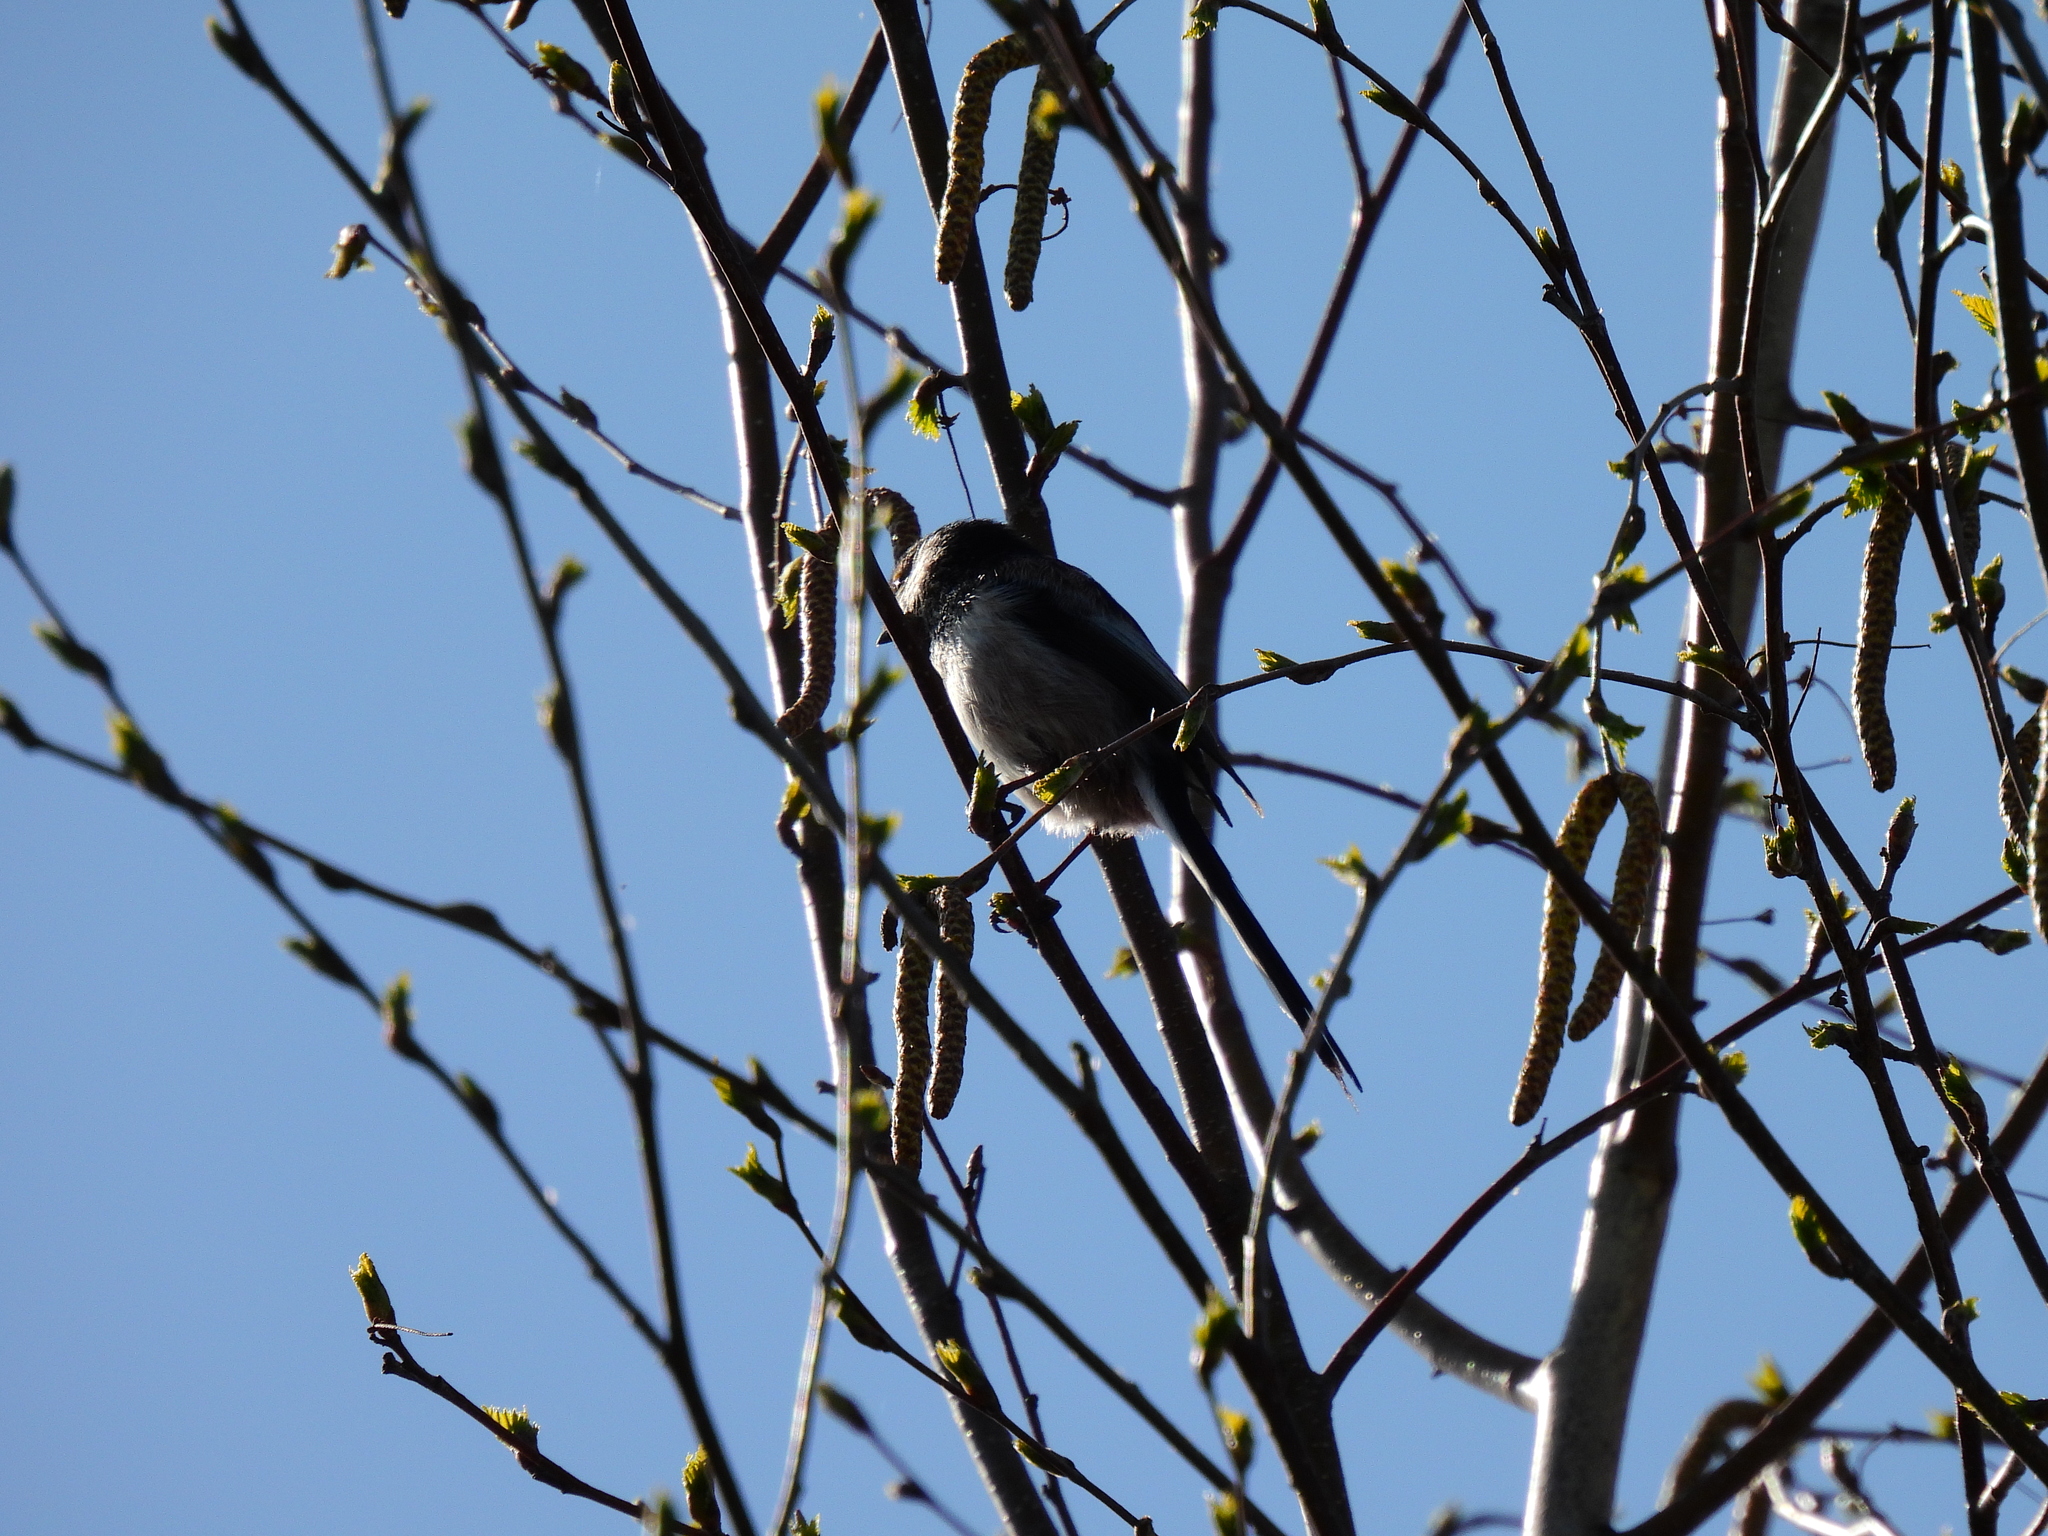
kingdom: Animalia
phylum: Chordata
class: Aves
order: Passeriformes
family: Aegithalidae
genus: Aegithalos
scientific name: Aegithalos caudatus
